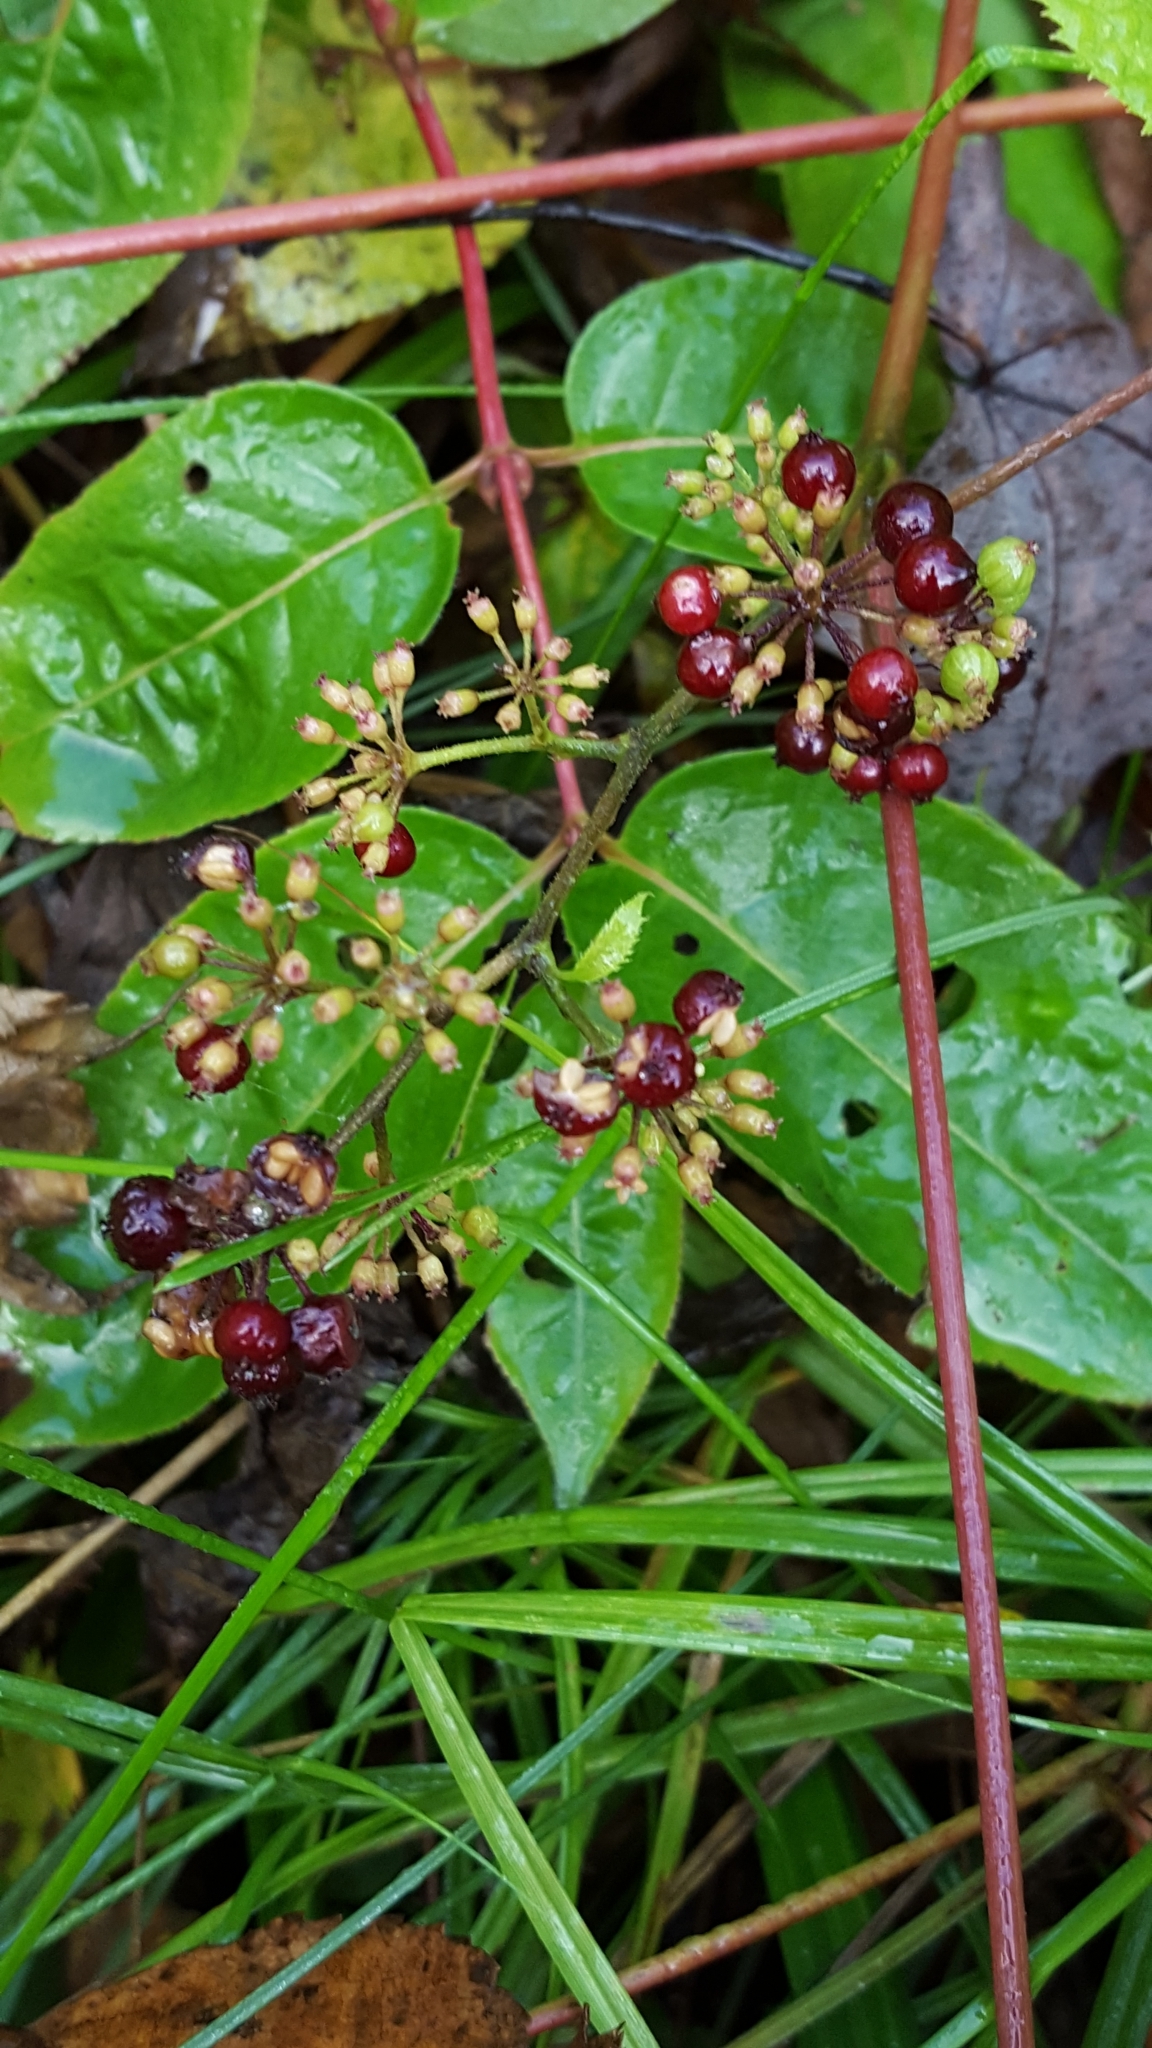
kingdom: Plantae
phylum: Tracheophyta
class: Magnoliopsida
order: Apiales
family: Araliaceae
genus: Aralia
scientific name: Aralia racemosa
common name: American-spikenard
